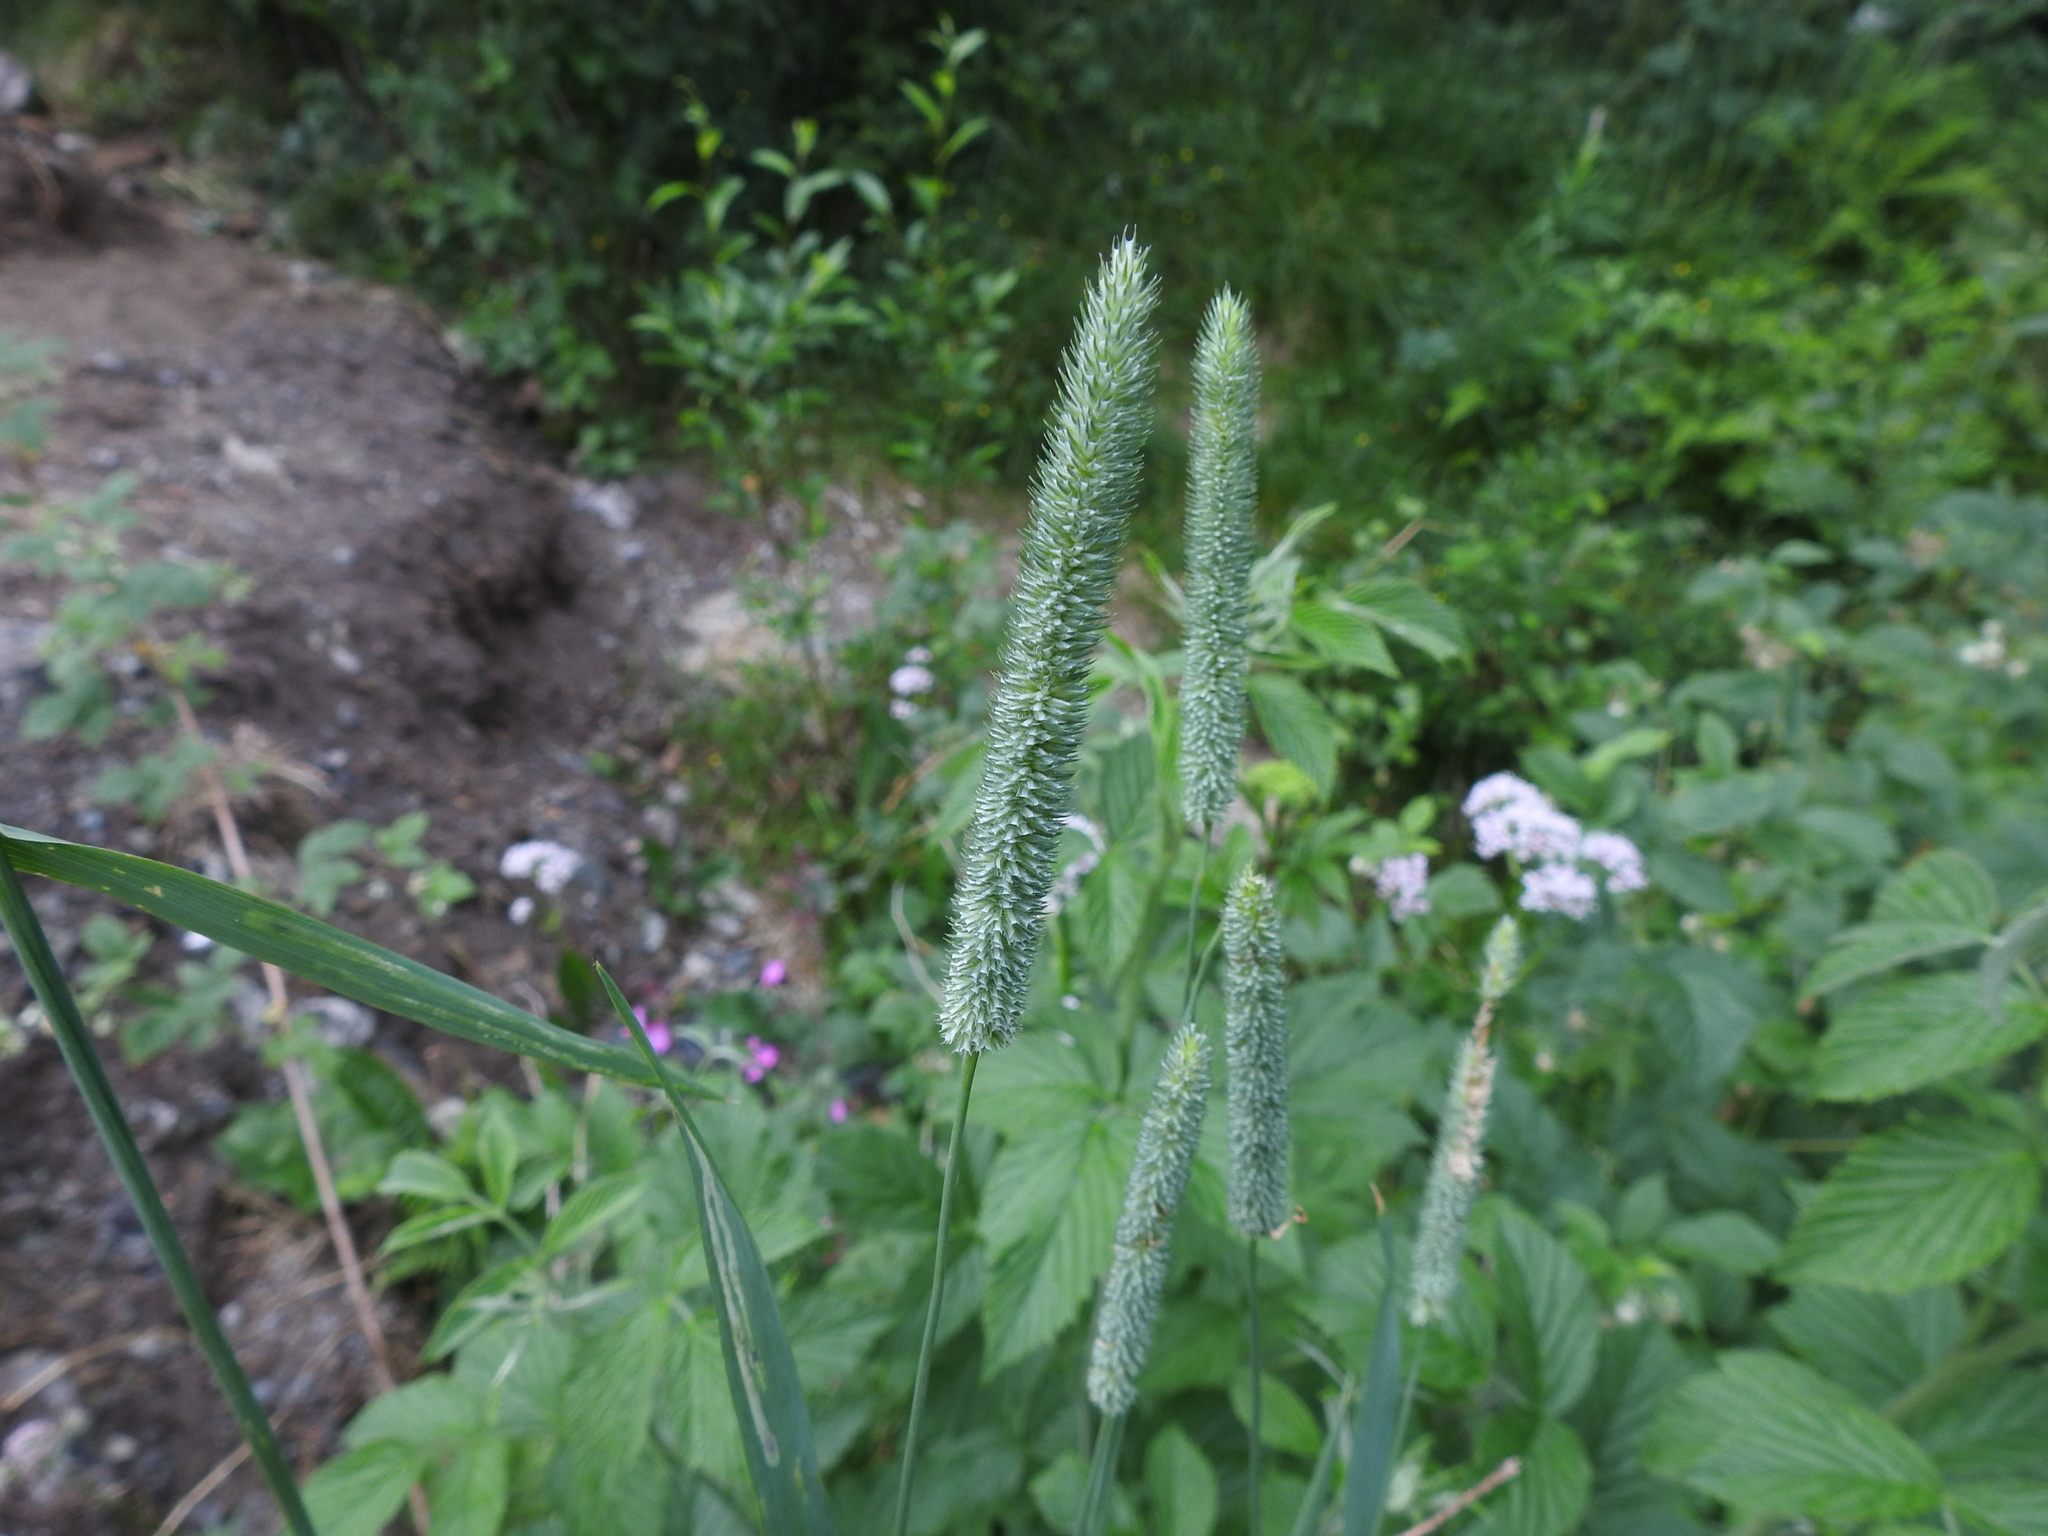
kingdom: Plantae
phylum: Tracheophyta
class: Liliopsida
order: Poales
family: Poaceae
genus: Phleum
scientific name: Phleum pratense
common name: Timothy grass
